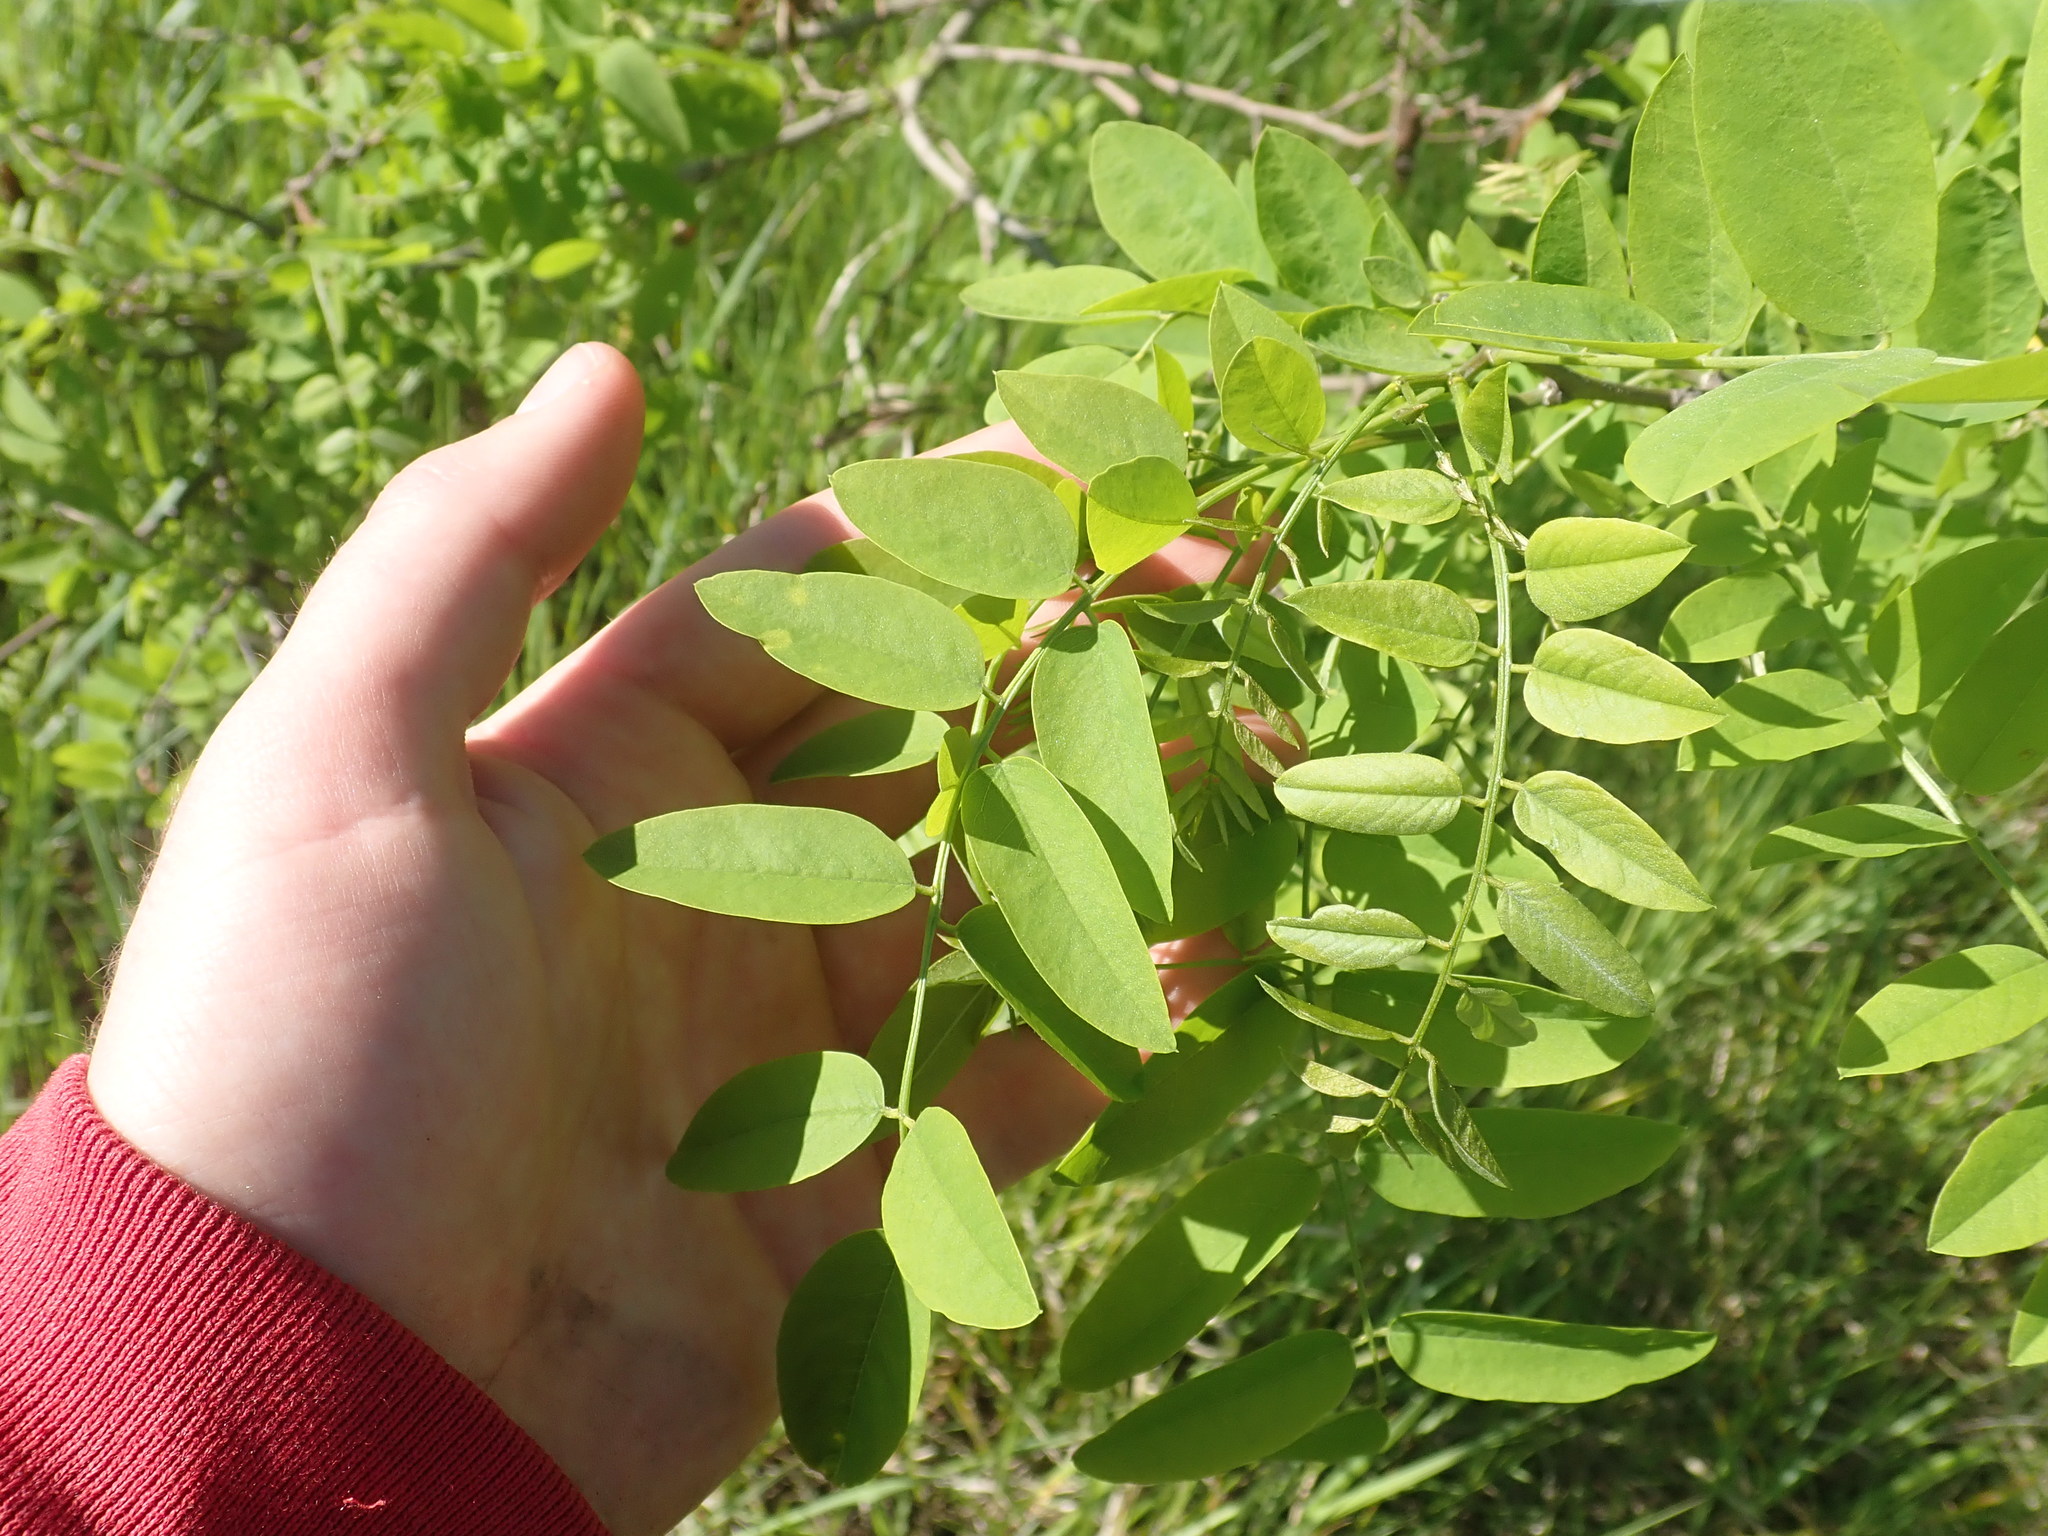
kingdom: Plantae
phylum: Tracheophyta
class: Magnoliopsida
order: Fabales
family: Fabaceae
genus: Robinia
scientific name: Robinia pseudoacacia
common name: Black locust
